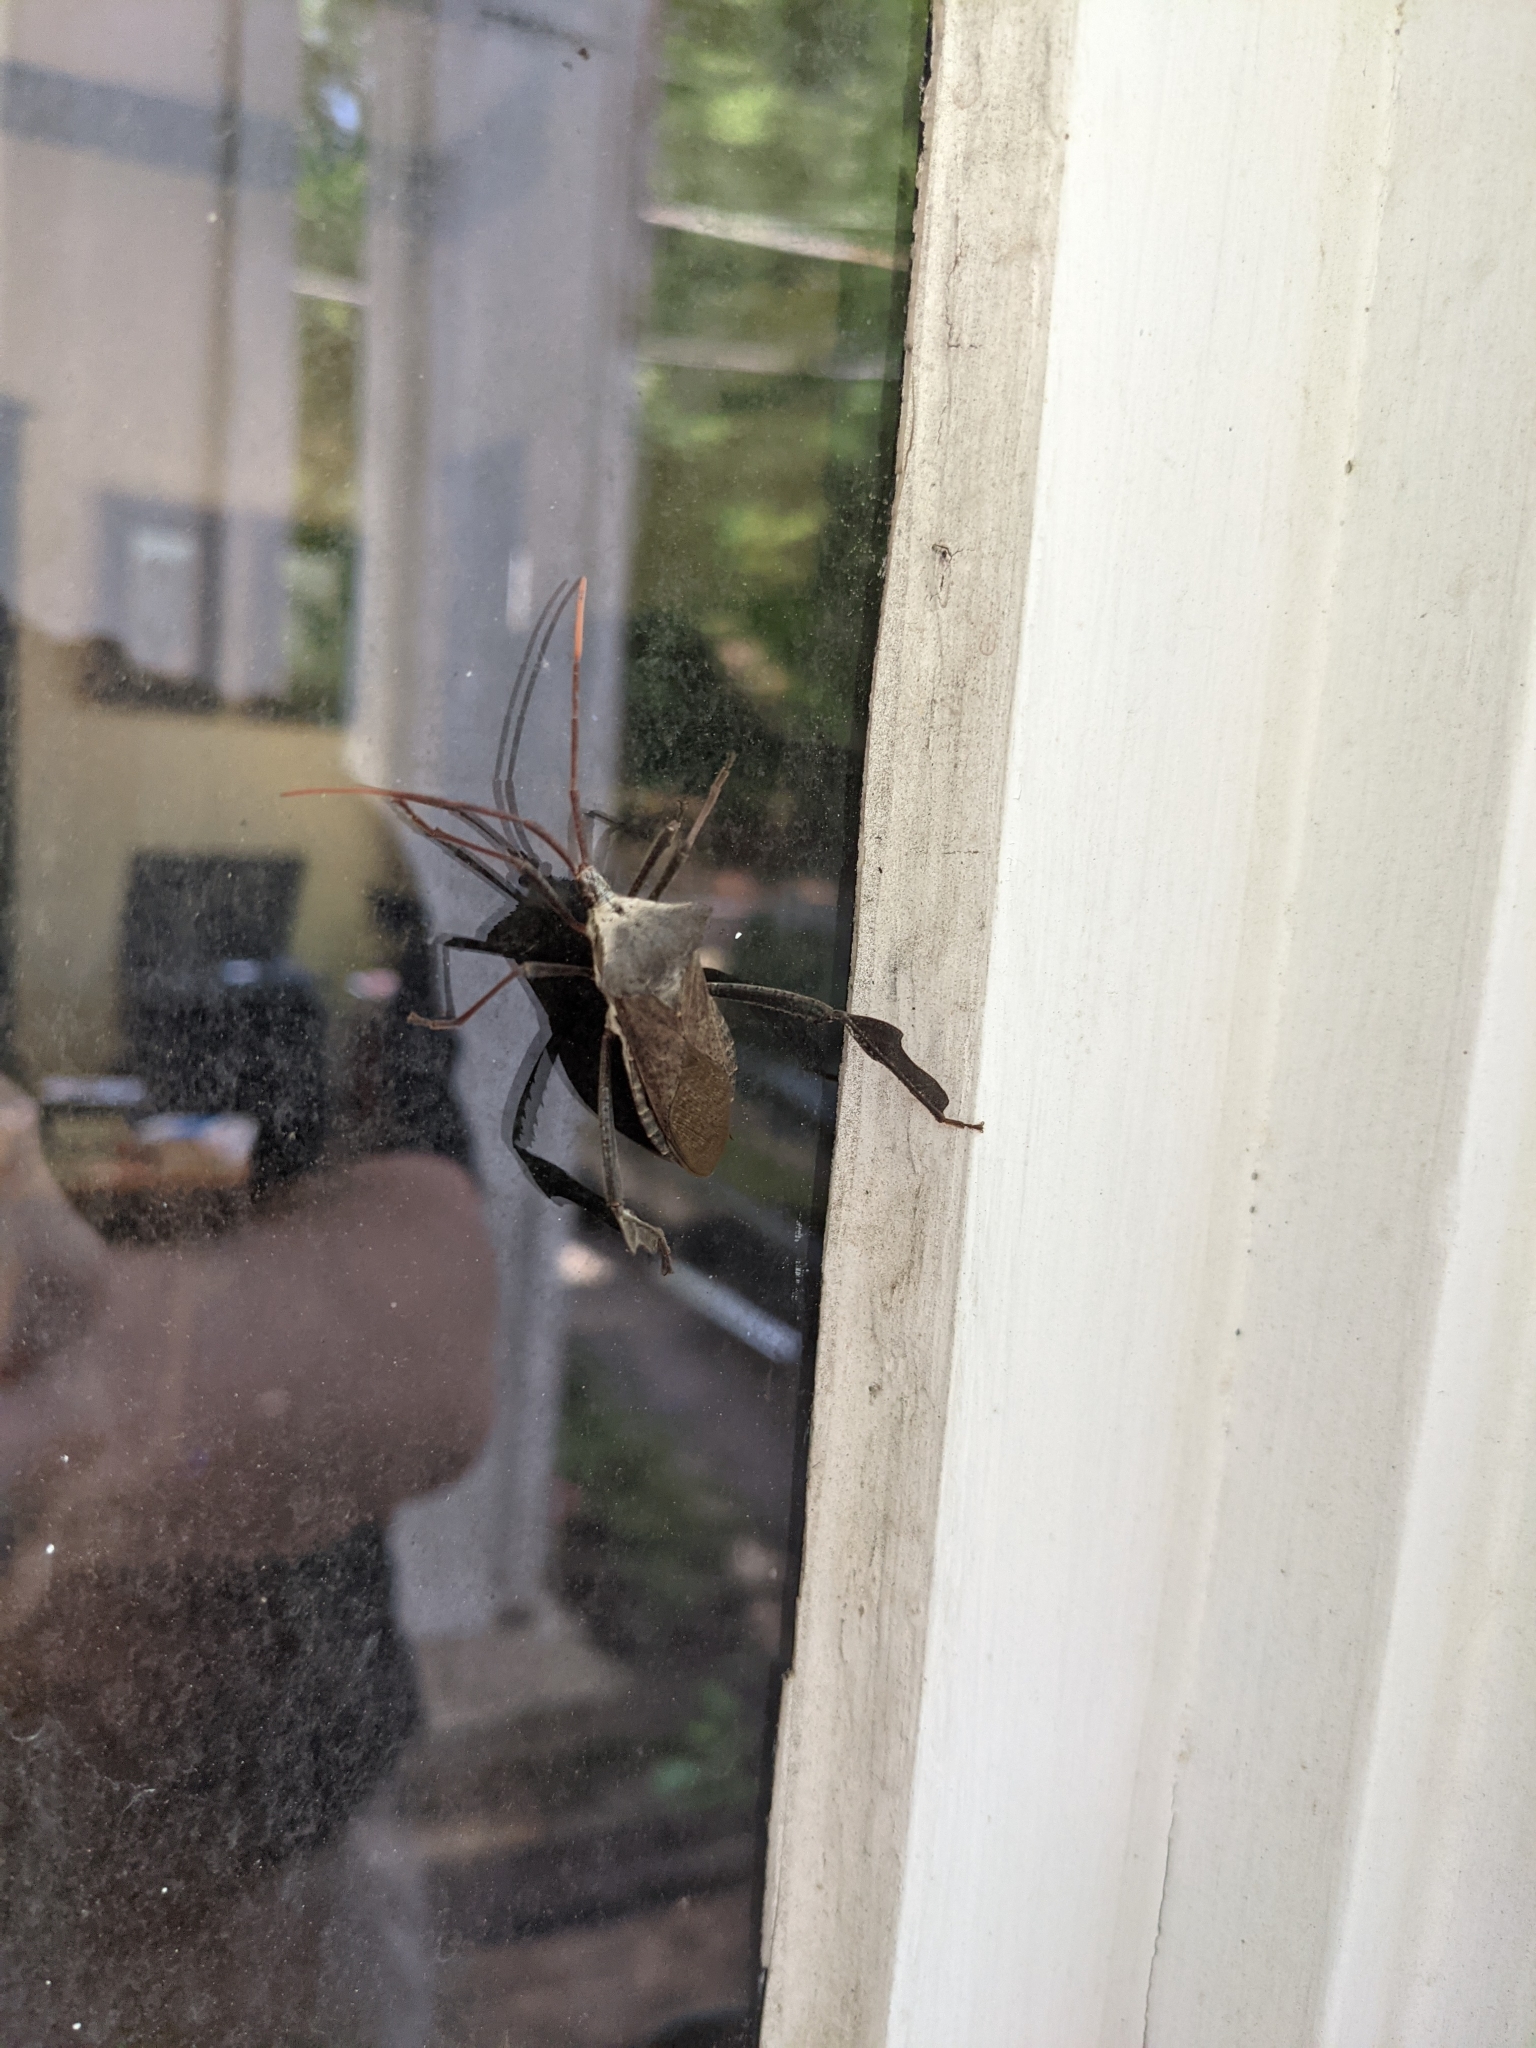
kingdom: Animalia
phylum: Arthropoda
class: Insecta
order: Hemiptera
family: Coreidae
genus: Acanthocephala
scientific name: Acanthocephala declivis
